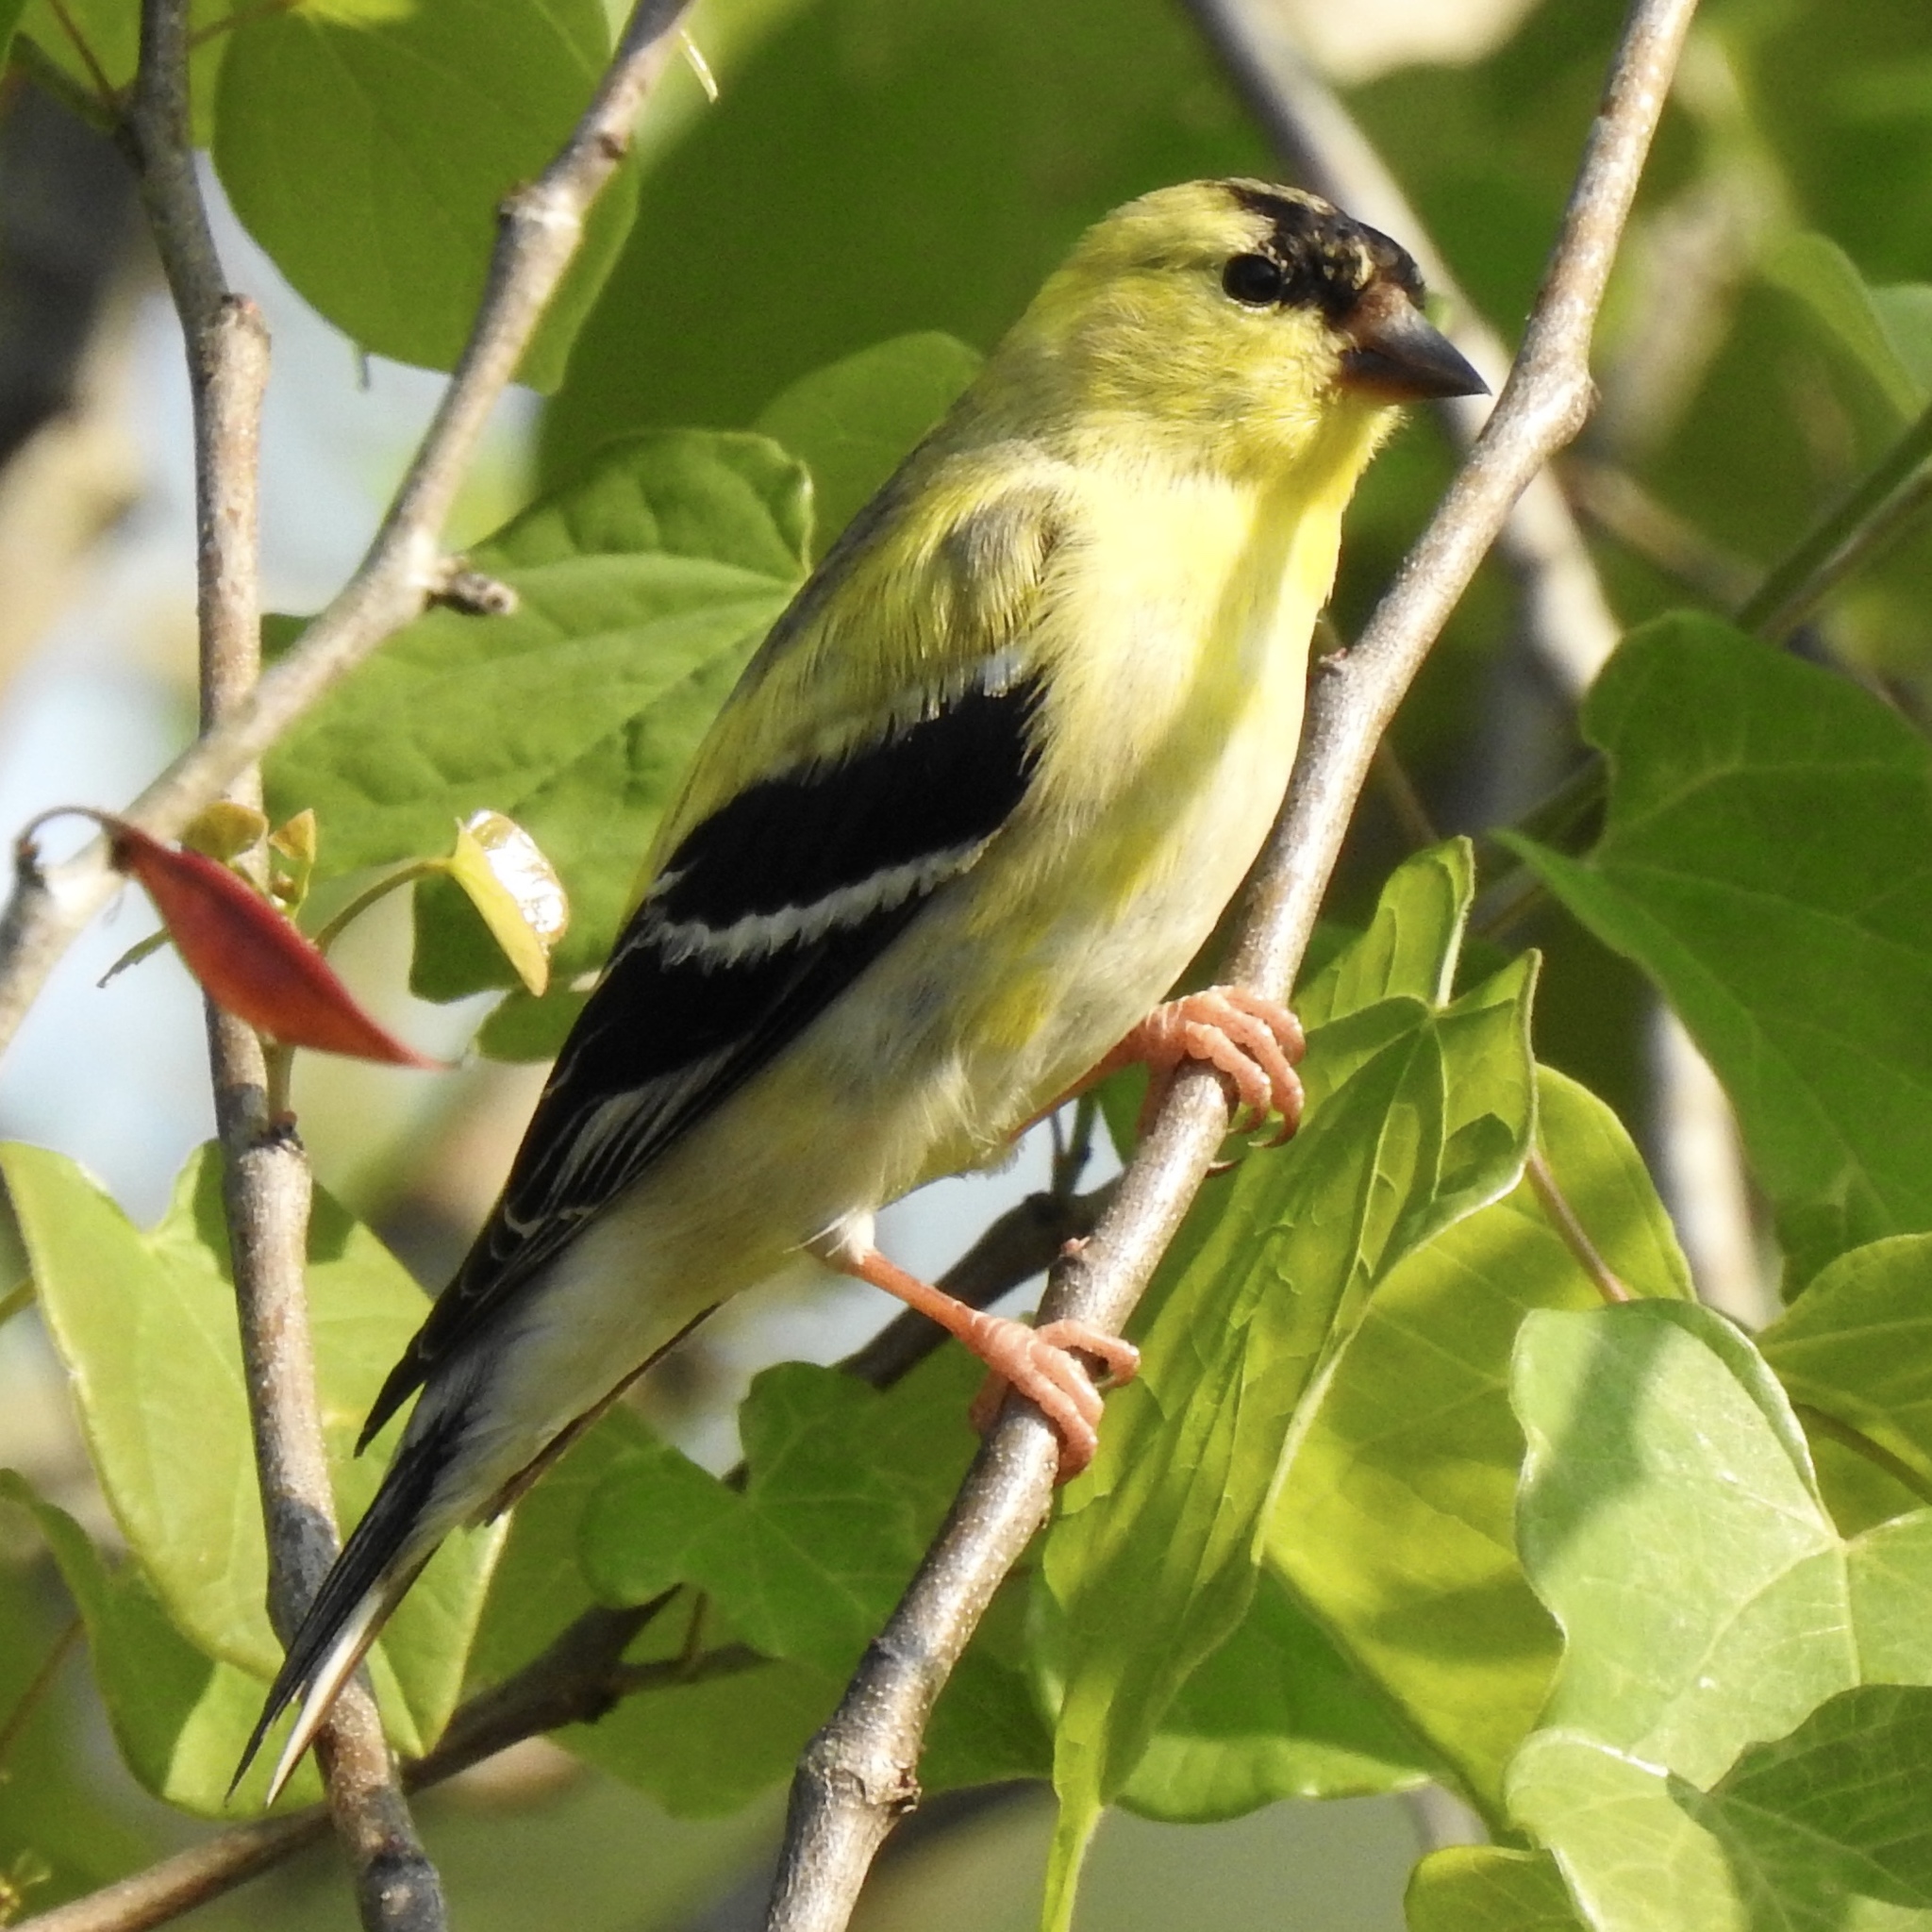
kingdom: Animalia
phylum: Chordata
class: Aves
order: Passeriformes
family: Fringillidae
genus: Spinus
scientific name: Spinus tristis
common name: American goldfinch
